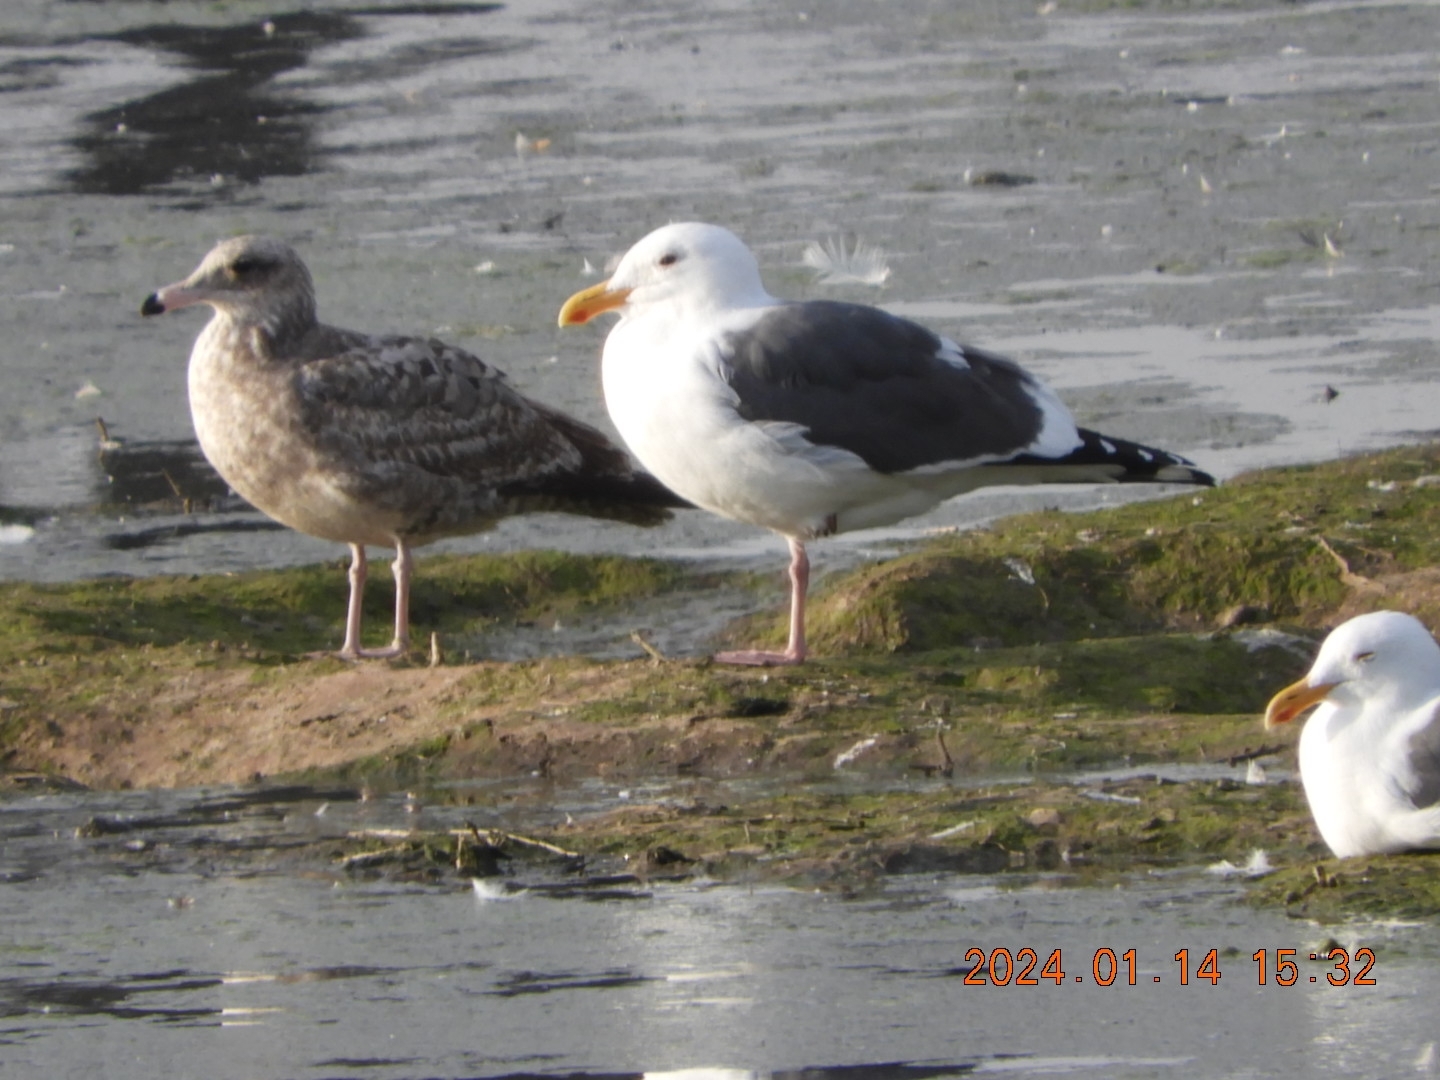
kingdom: Animalia
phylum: Chordata
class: Aves
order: Charadriiformes
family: Laridae
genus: Larus
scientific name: Larus occidentalis
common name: Western gull
